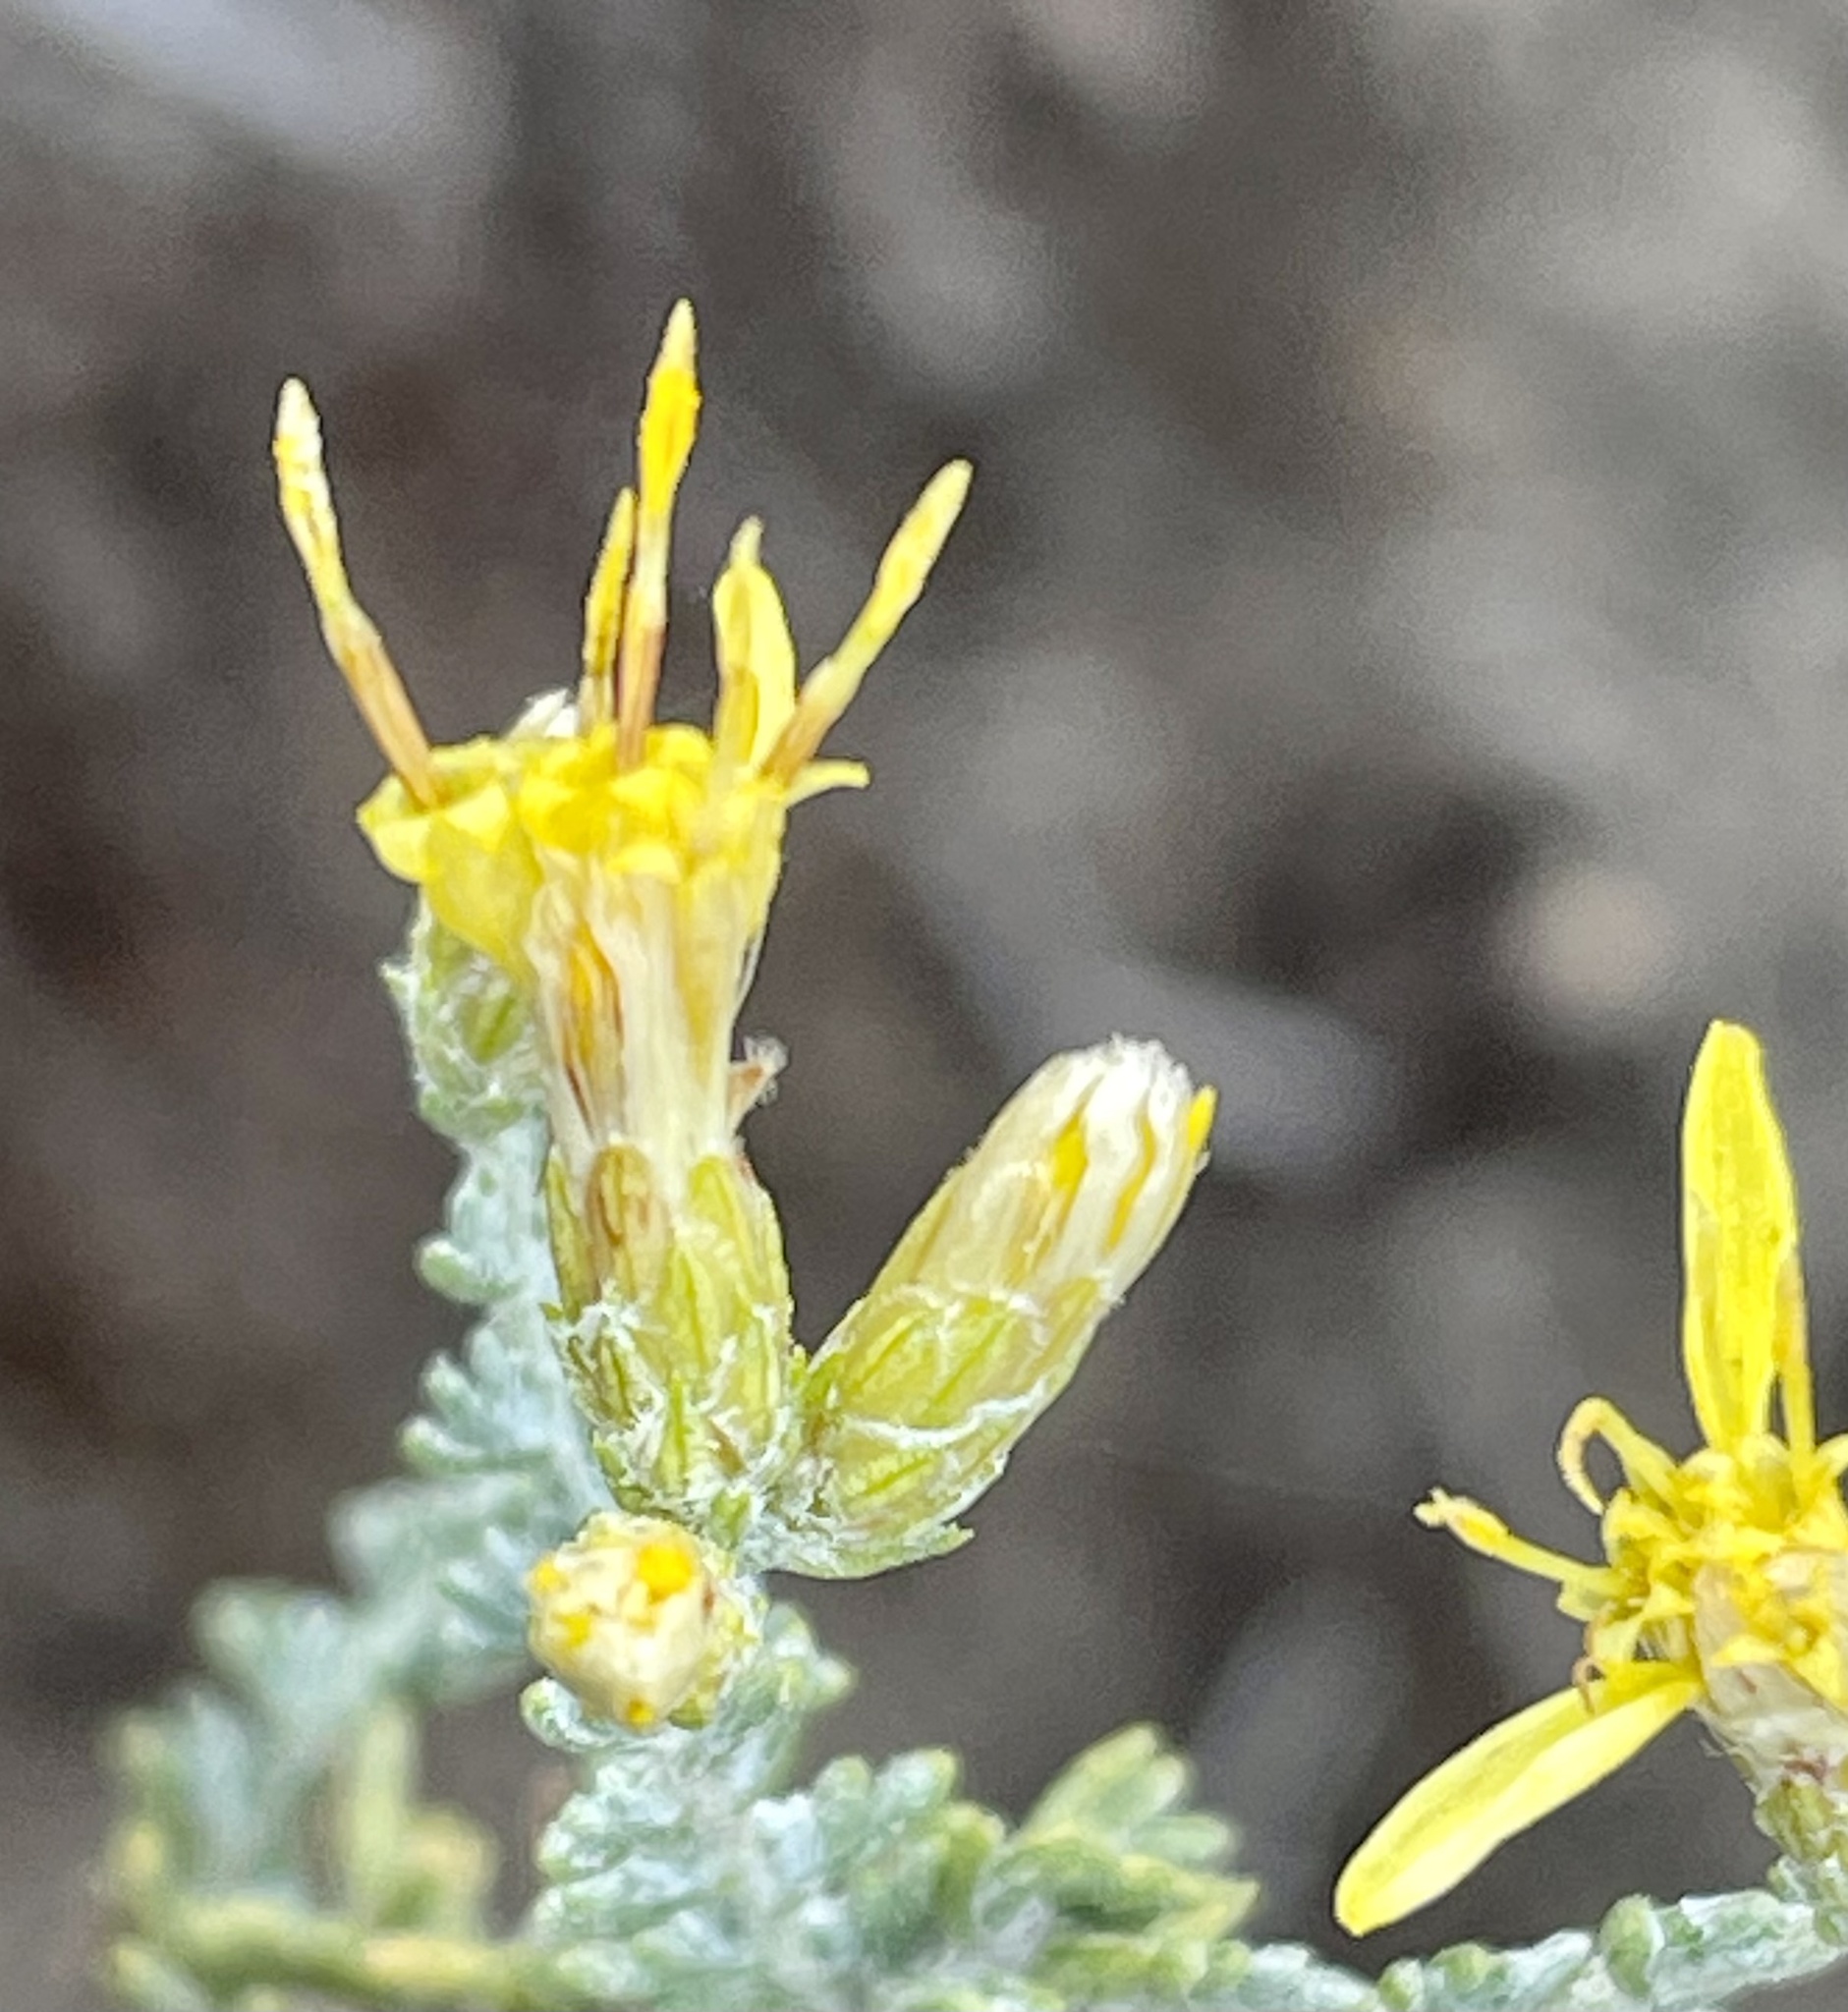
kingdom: Plantae
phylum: Tracheophyta
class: Magnoliopsida
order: Asterales
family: Asteraceae
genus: Ericameria
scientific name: Ericameria ericoides
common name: California goldenbush
